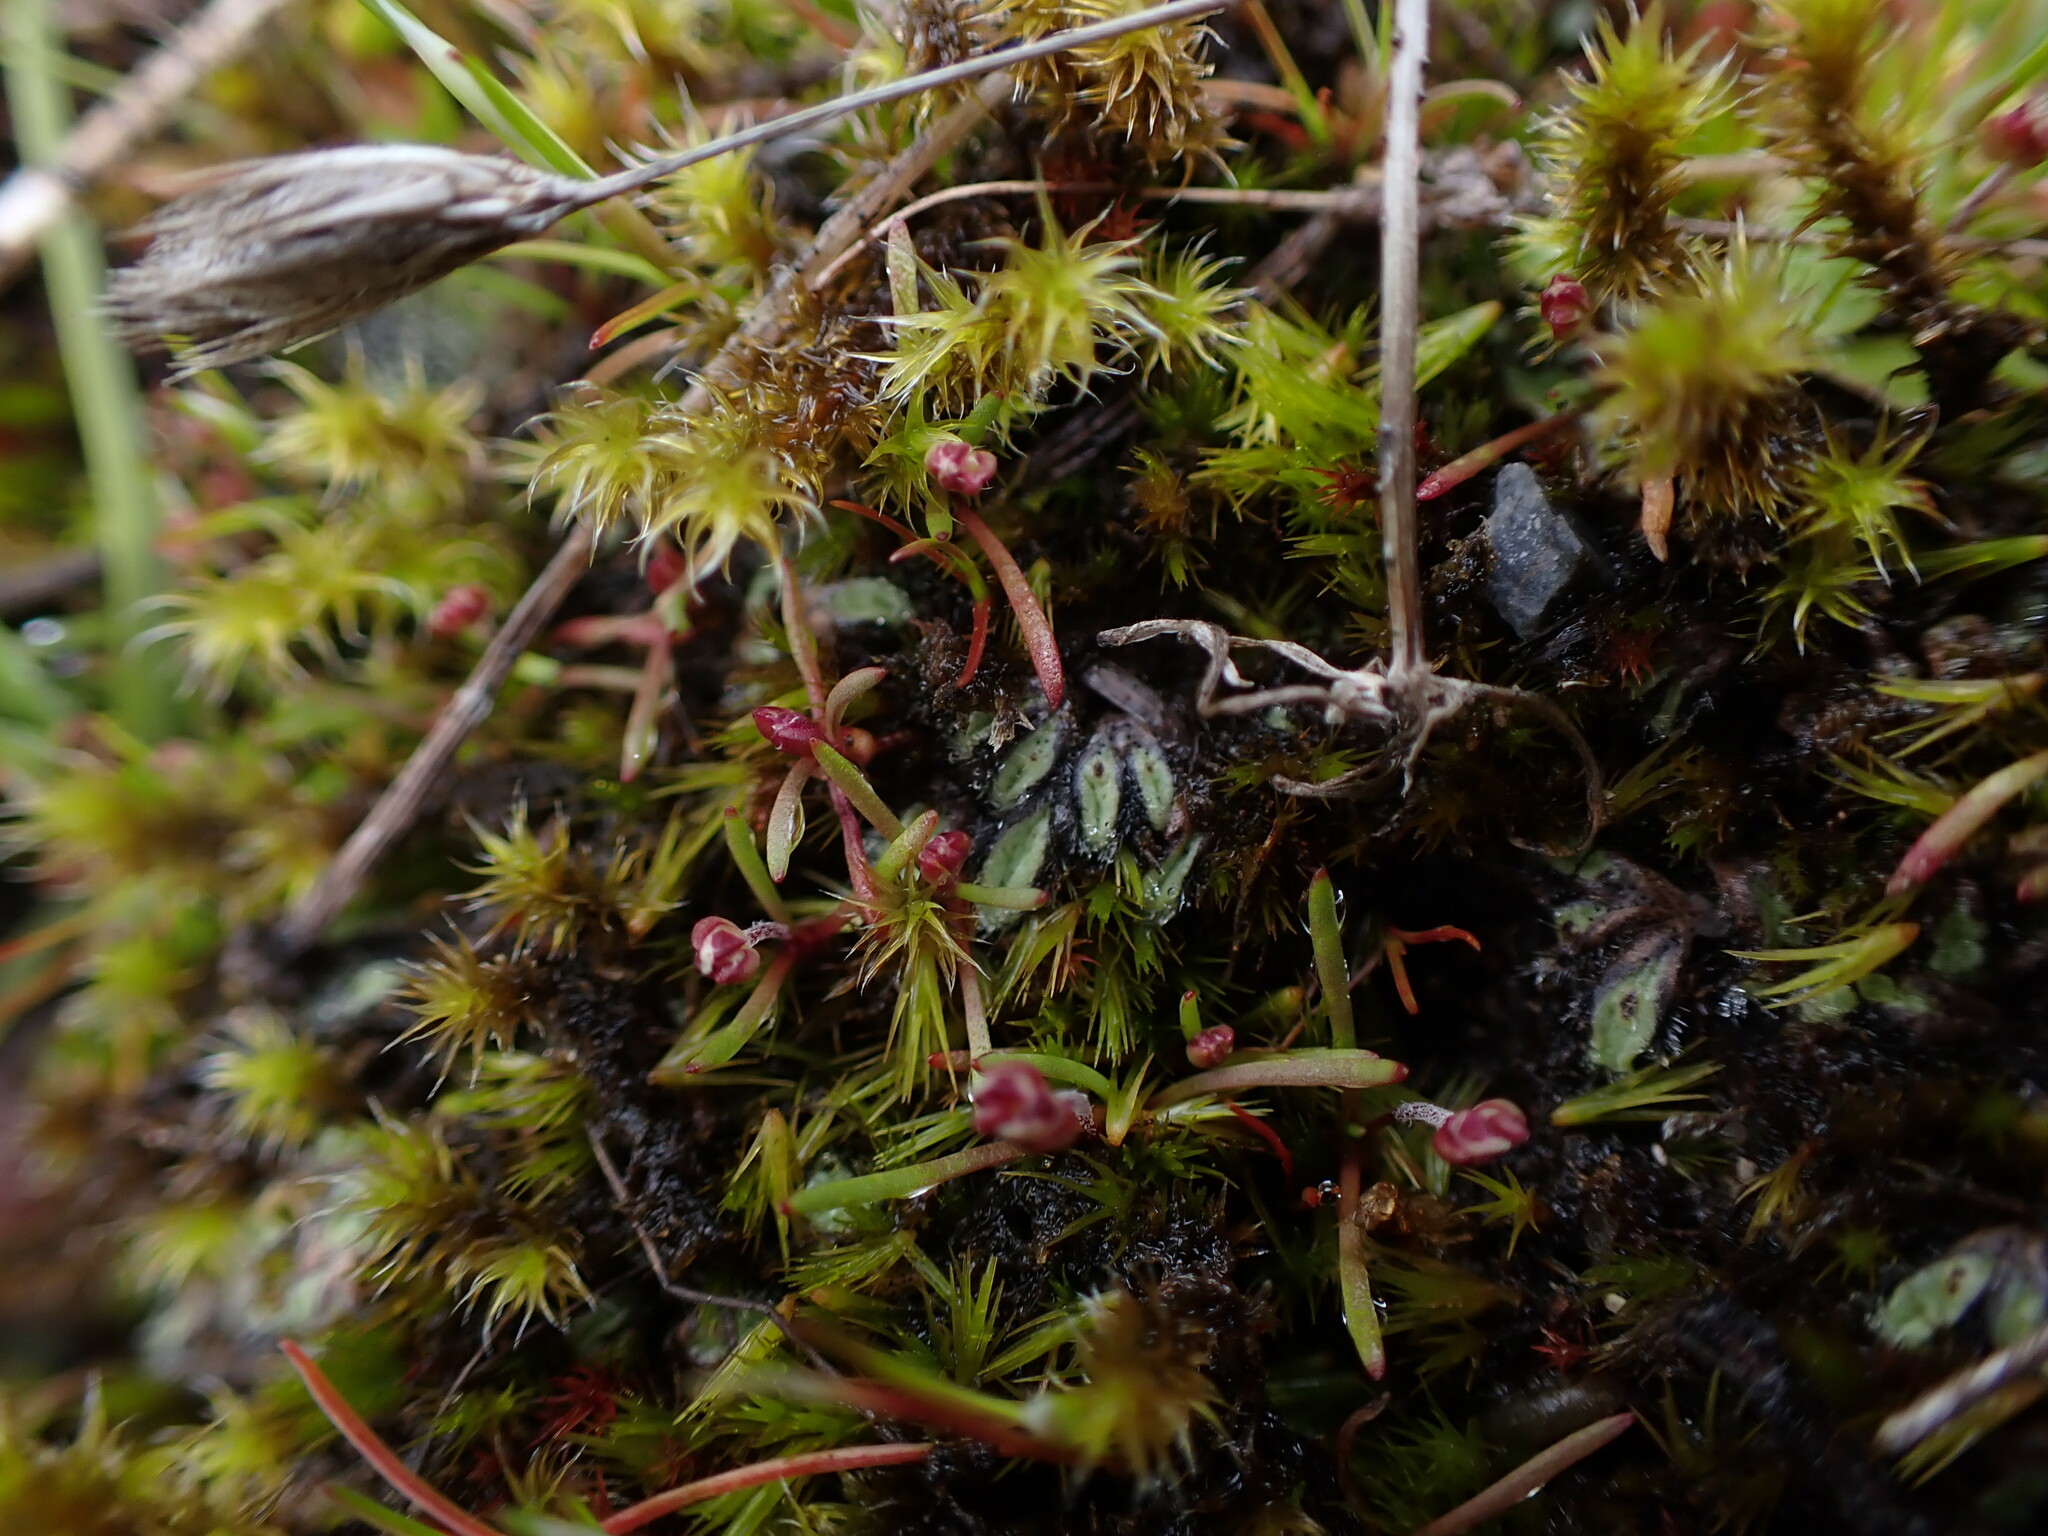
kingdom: Plantae
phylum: Marchantiophyta
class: Marchantiopsida
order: Marchantiales
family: Ricciaceae
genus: Riccia
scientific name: Riccia trichocarpa
